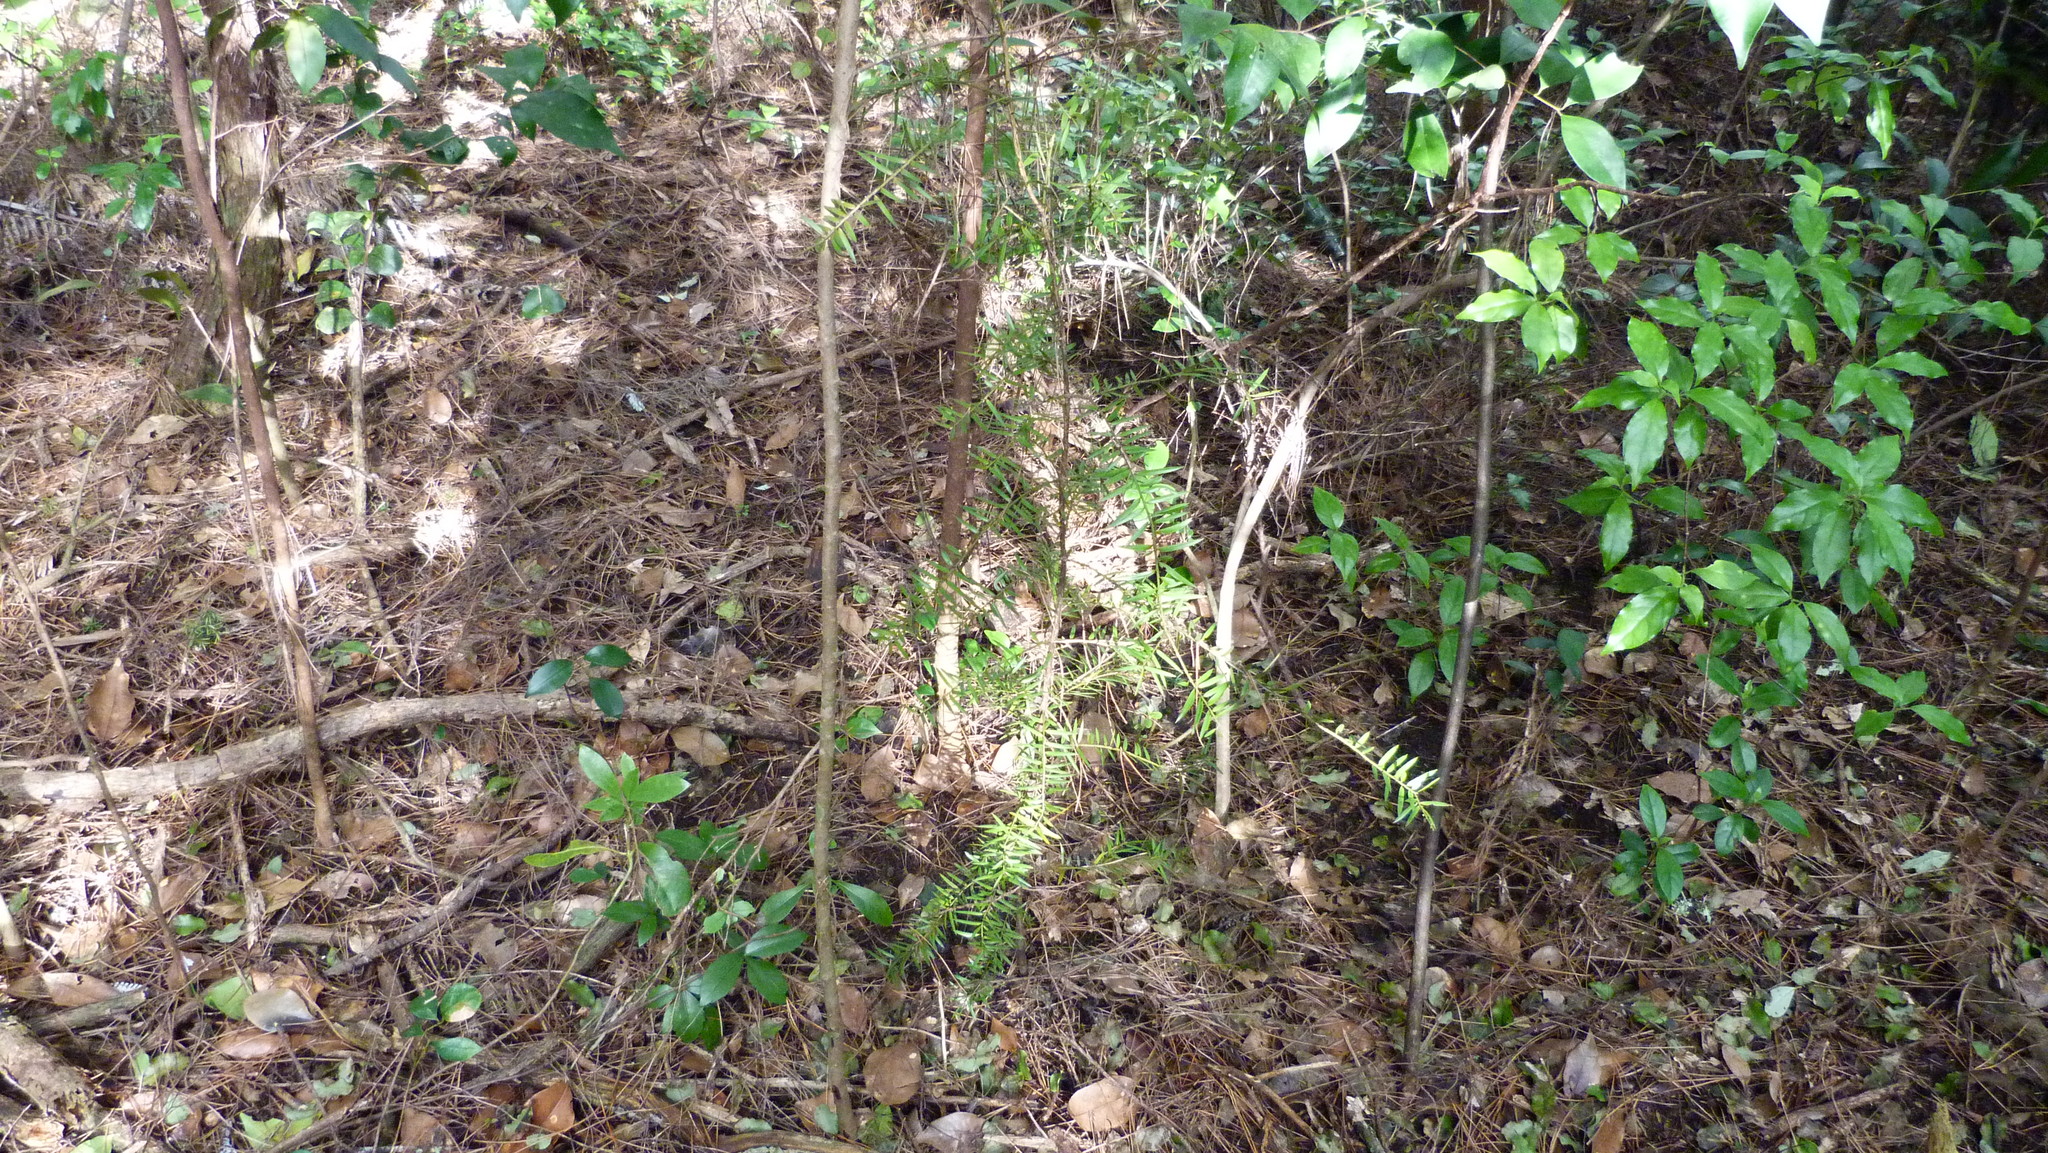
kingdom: Plantae
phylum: Tracheophyta
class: Pinopsida
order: Pinales
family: Podocarpaceae
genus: Podocarpus
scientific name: Podocarpus totara
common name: Totara
